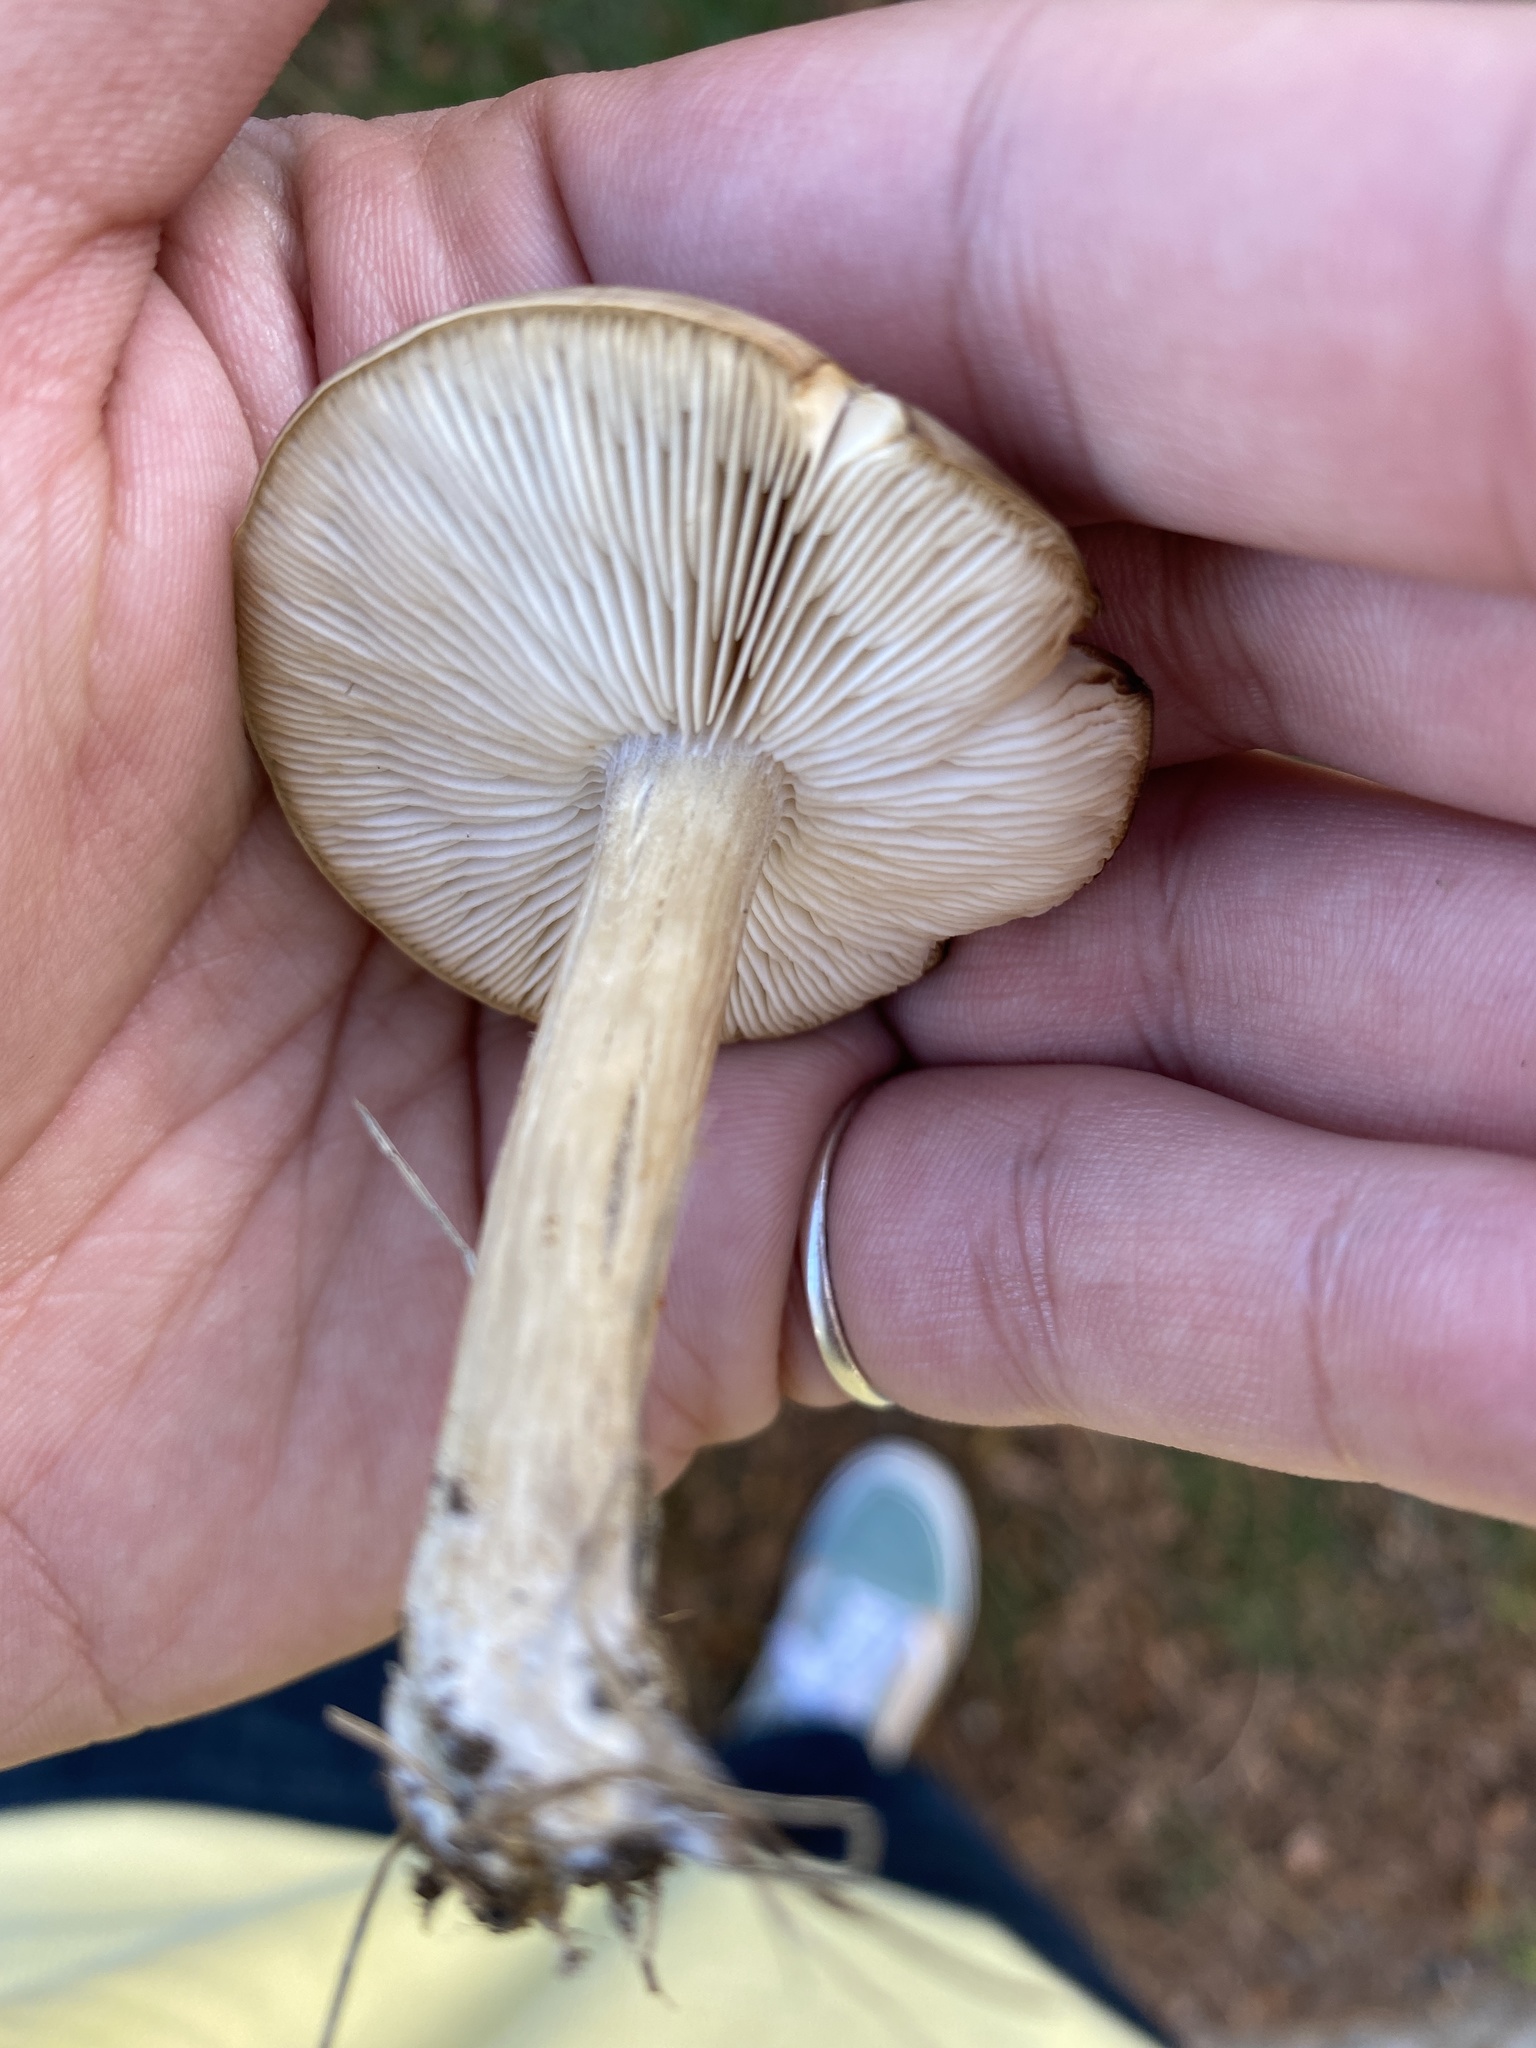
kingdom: Fungi
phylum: Basidiomycota
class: Agaricomycetes
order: Agaricales
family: Pluteaceae
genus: Pluteus
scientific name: Pluteus cervinus
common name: Deer shield
